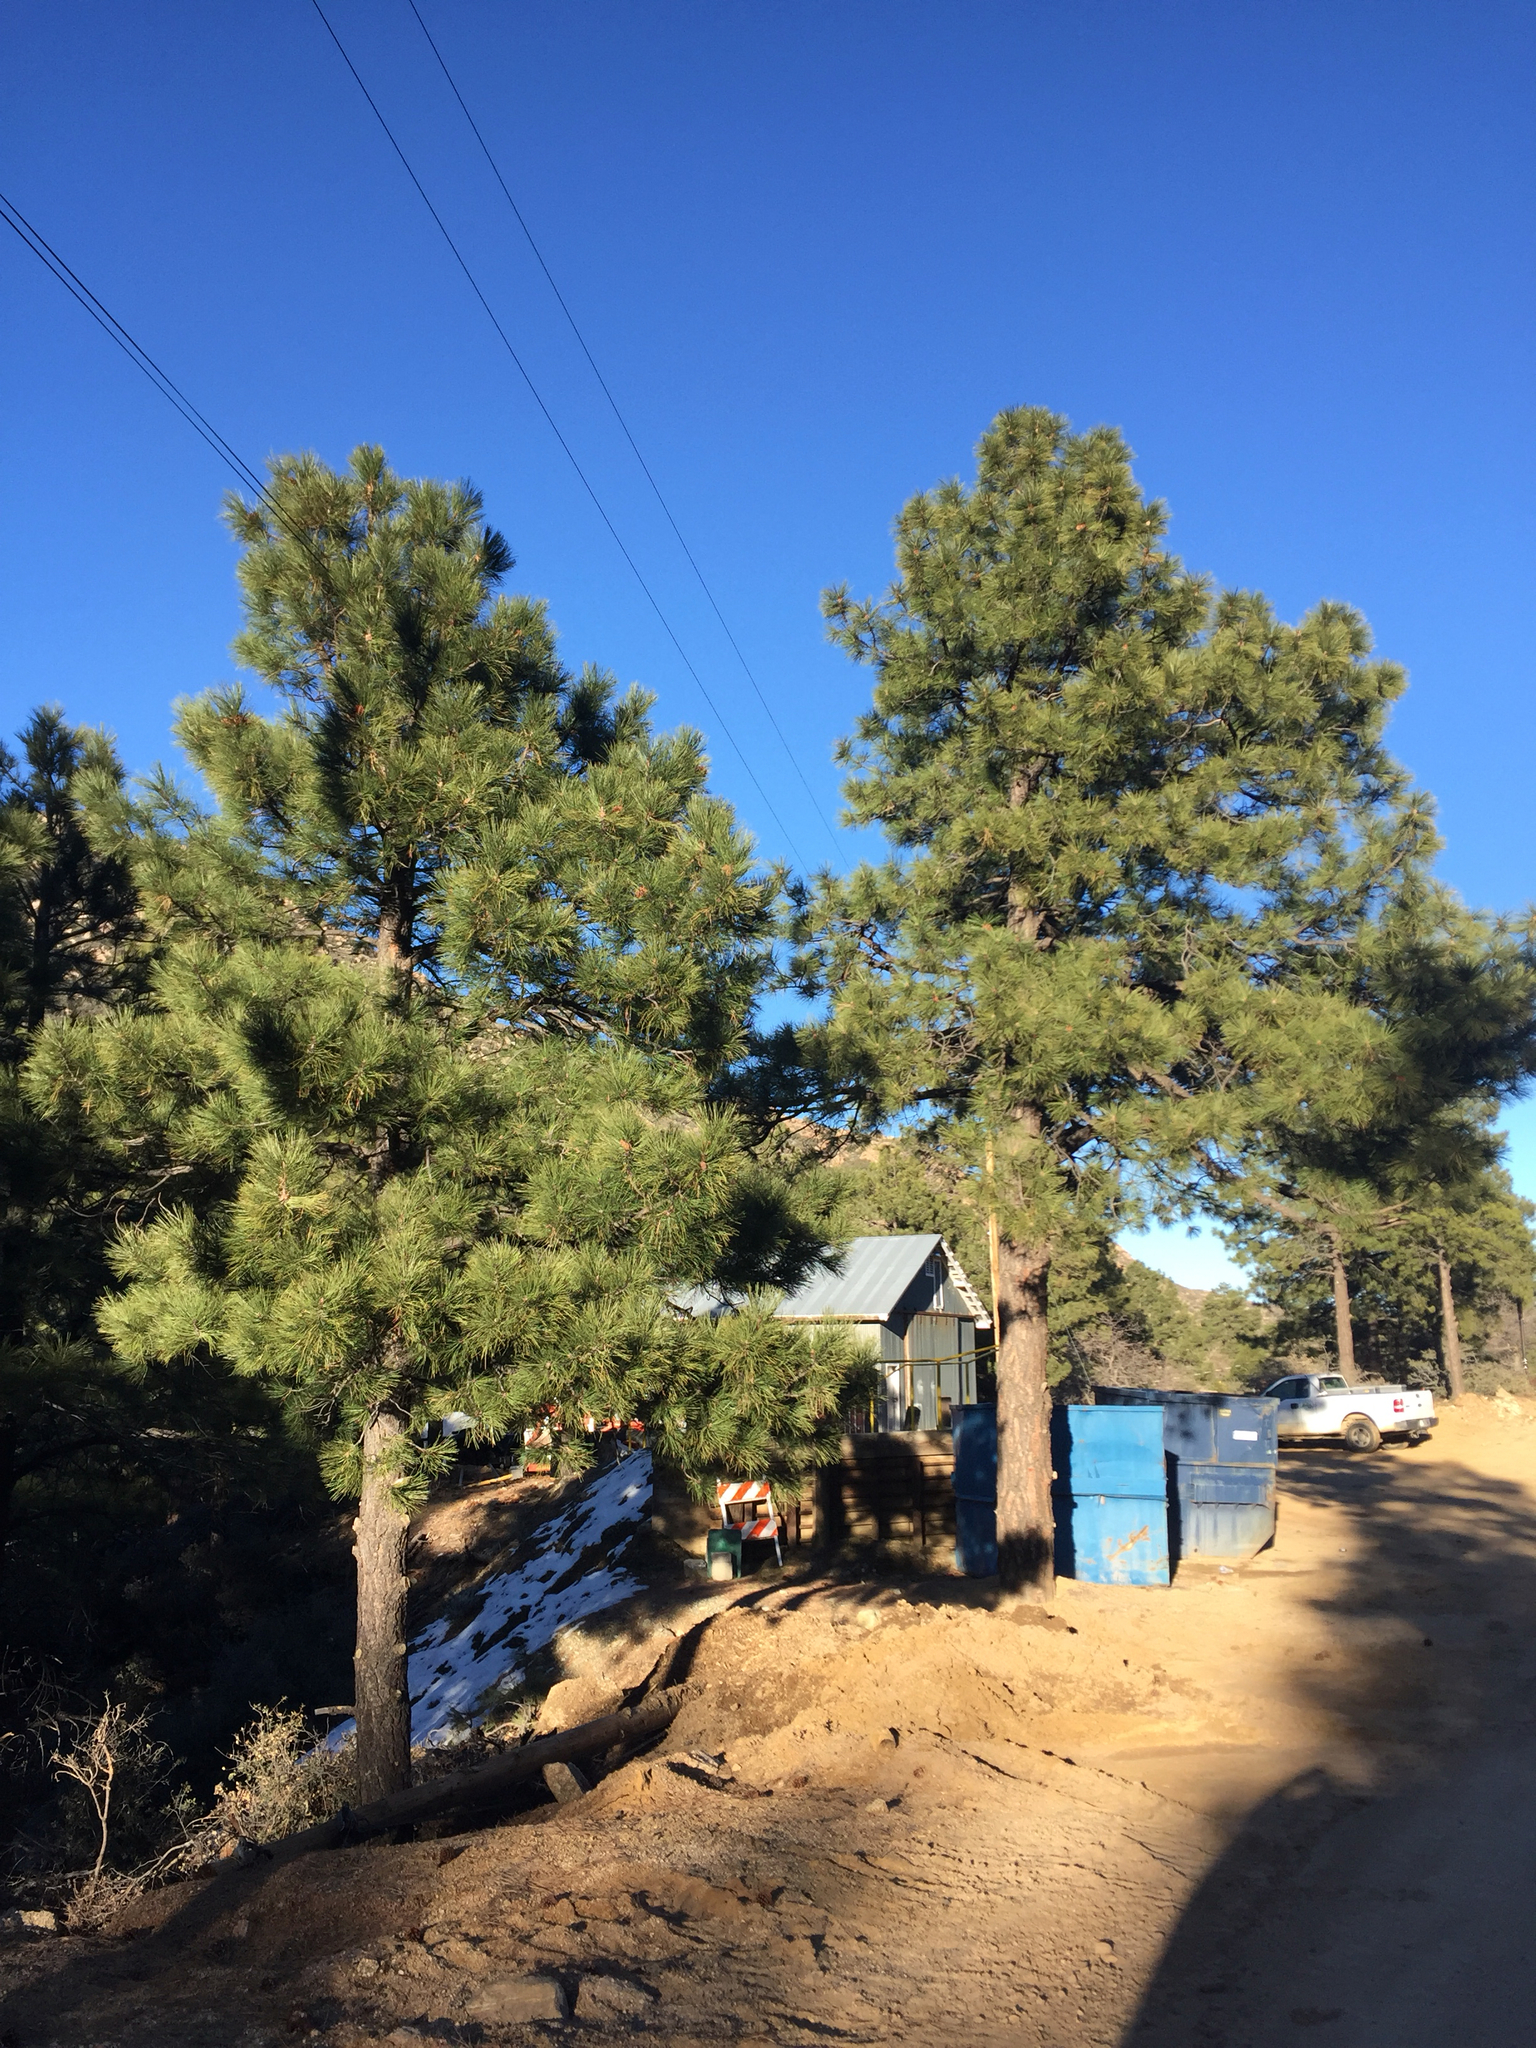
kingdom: Plantae
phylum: Tracheophyta
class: Pinopsida
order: Pinales
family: Pinaceae
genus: Pinus
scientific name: Pinus ponderosa
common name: Western yellow-pine
